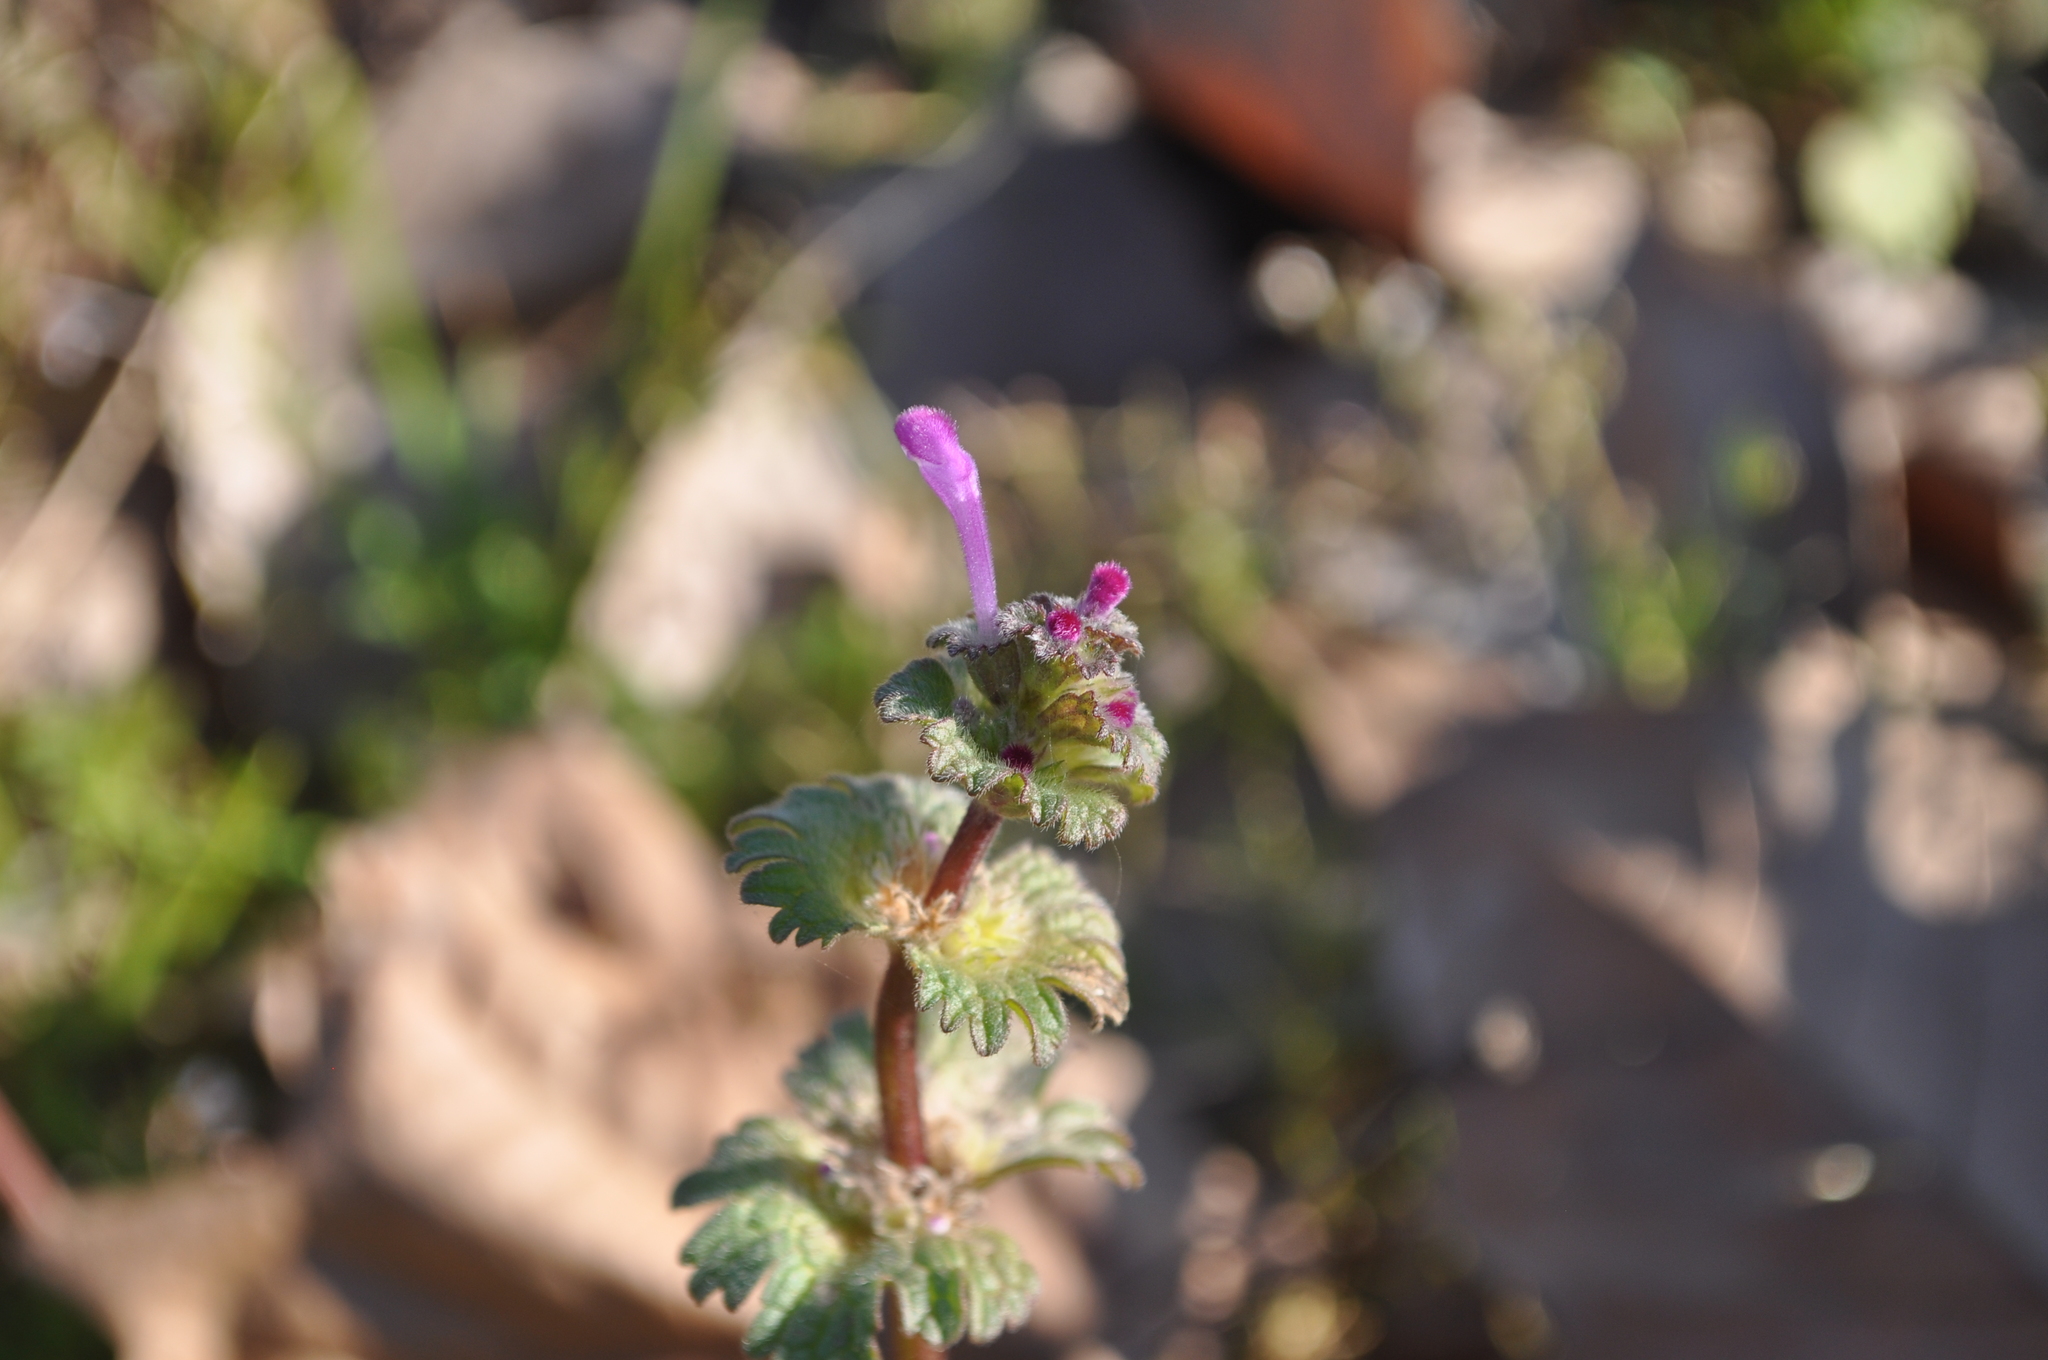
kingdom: Plantae
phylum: Tracheophyta
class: Magnoliopsida
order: Lamiales
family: Lamiaceae
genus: Lamium
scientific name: Lamium amplexicaule
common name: Henbit dead-nettle
